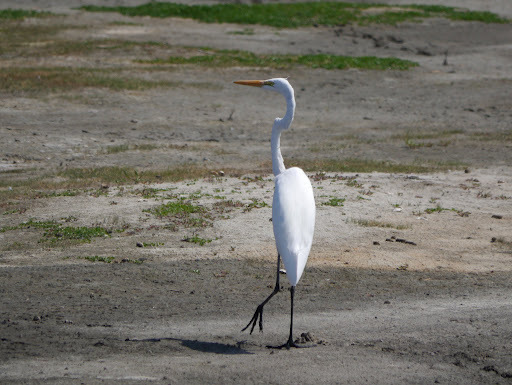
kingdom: Animalia
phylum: Chordata
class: Aves
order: Pelecaniformes
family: Ardeidae
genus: Ardea
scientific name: Ardea alba
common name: Great egret
